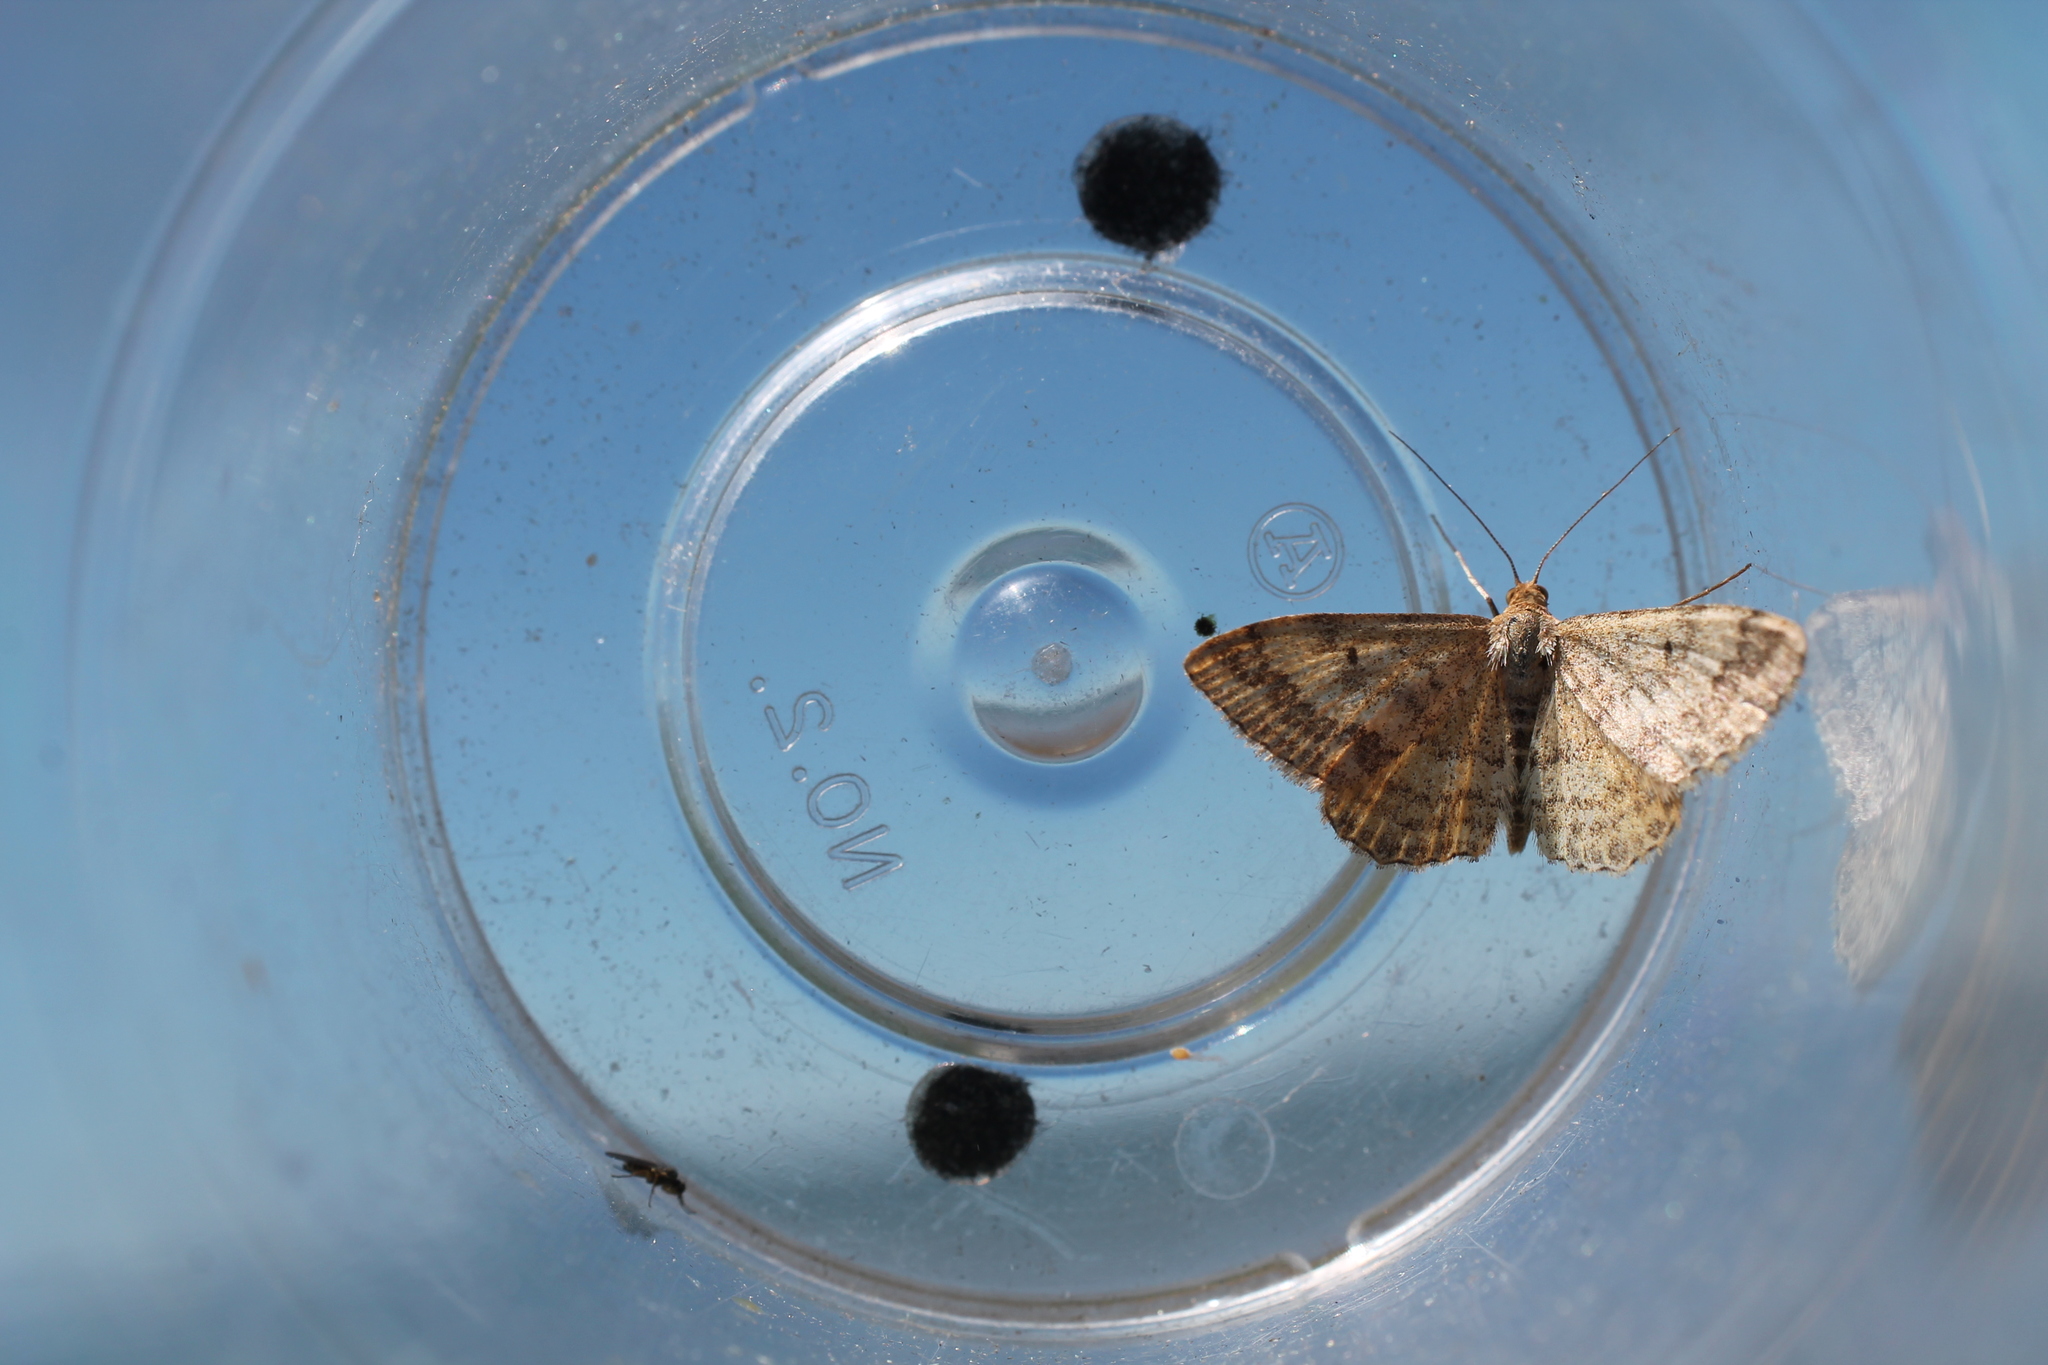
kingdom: Animalia
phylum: Arthropoda
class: Insecta
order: Lepidoptera
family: Geometridae
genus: Scopula
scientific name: Scopula rubraria
